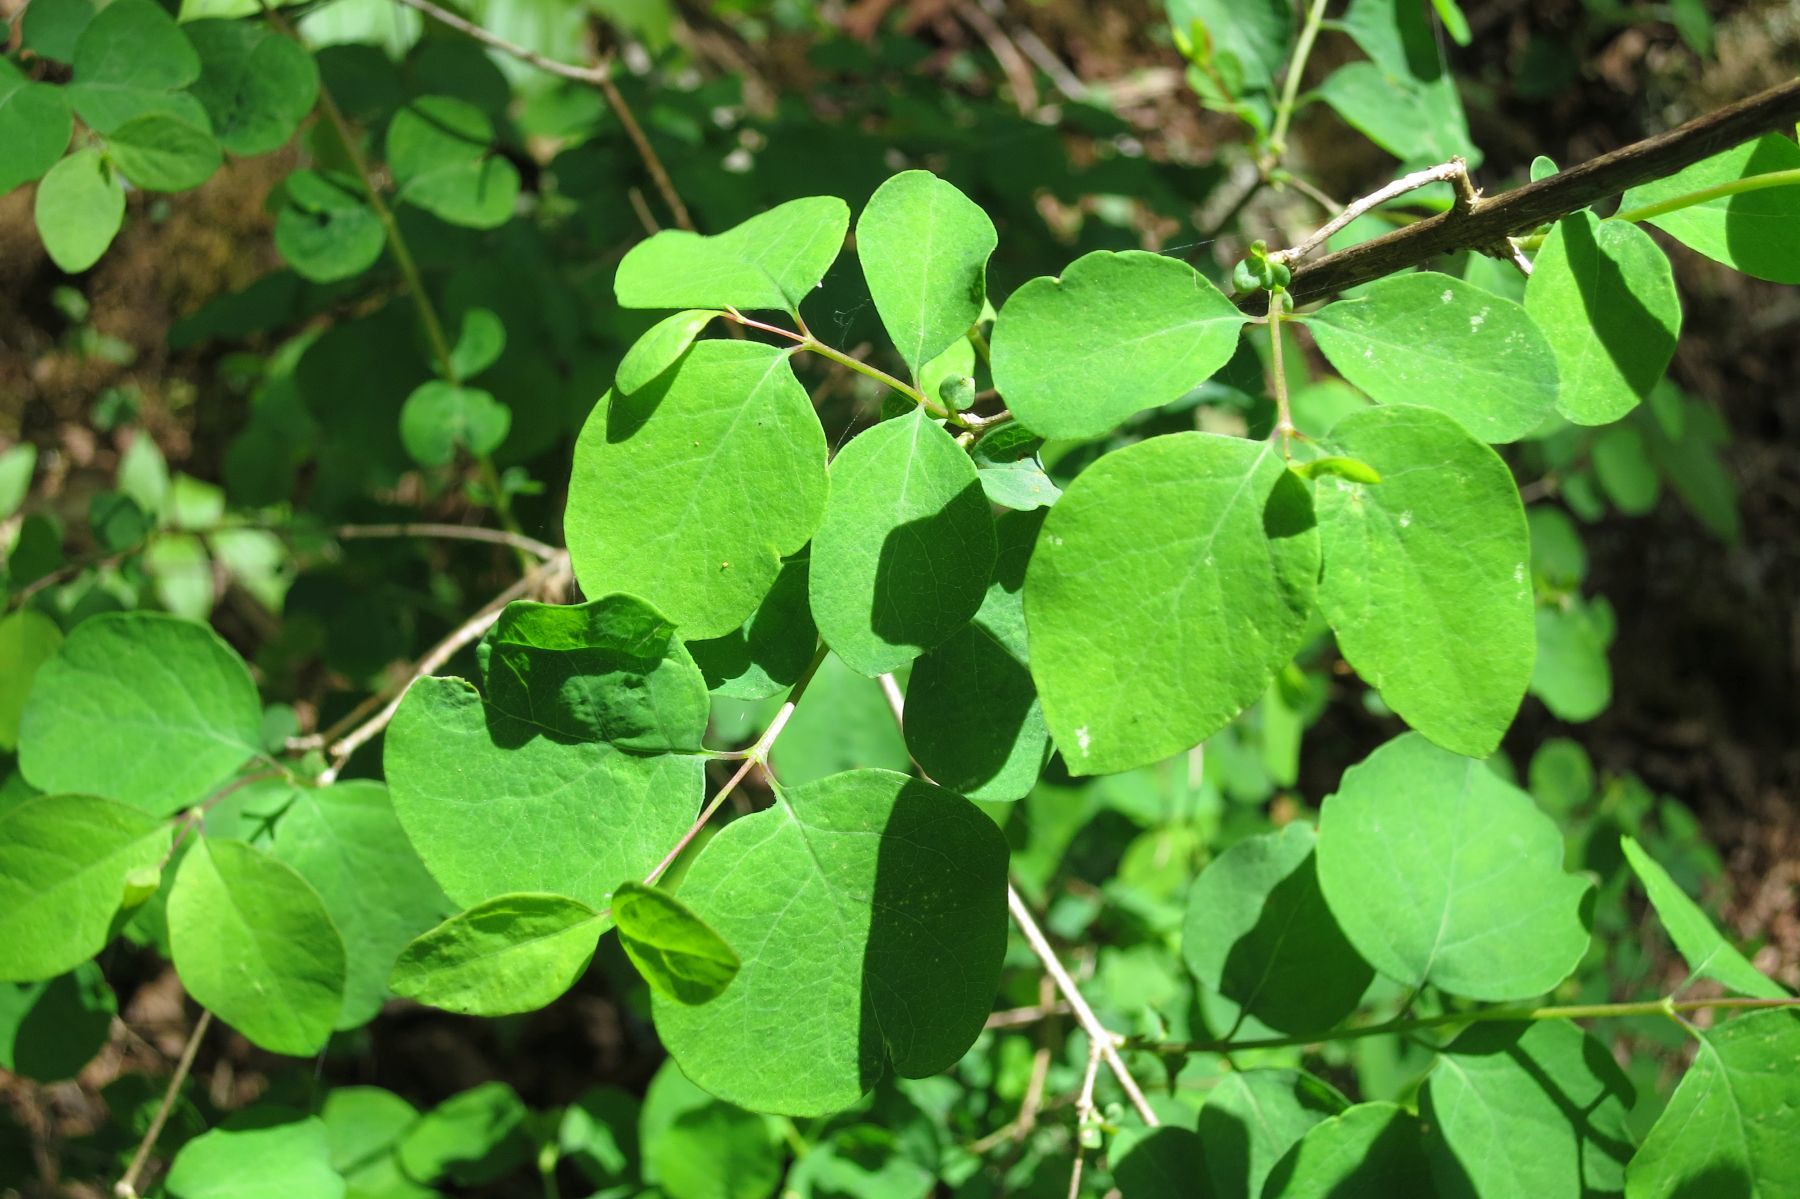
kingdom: Plantae
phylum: Tracheophyta
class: Magnoliopsida
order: Dipsacales
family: Caprifoliaceae
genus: Symphoricarpos
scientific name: Symphoricarpos albus
